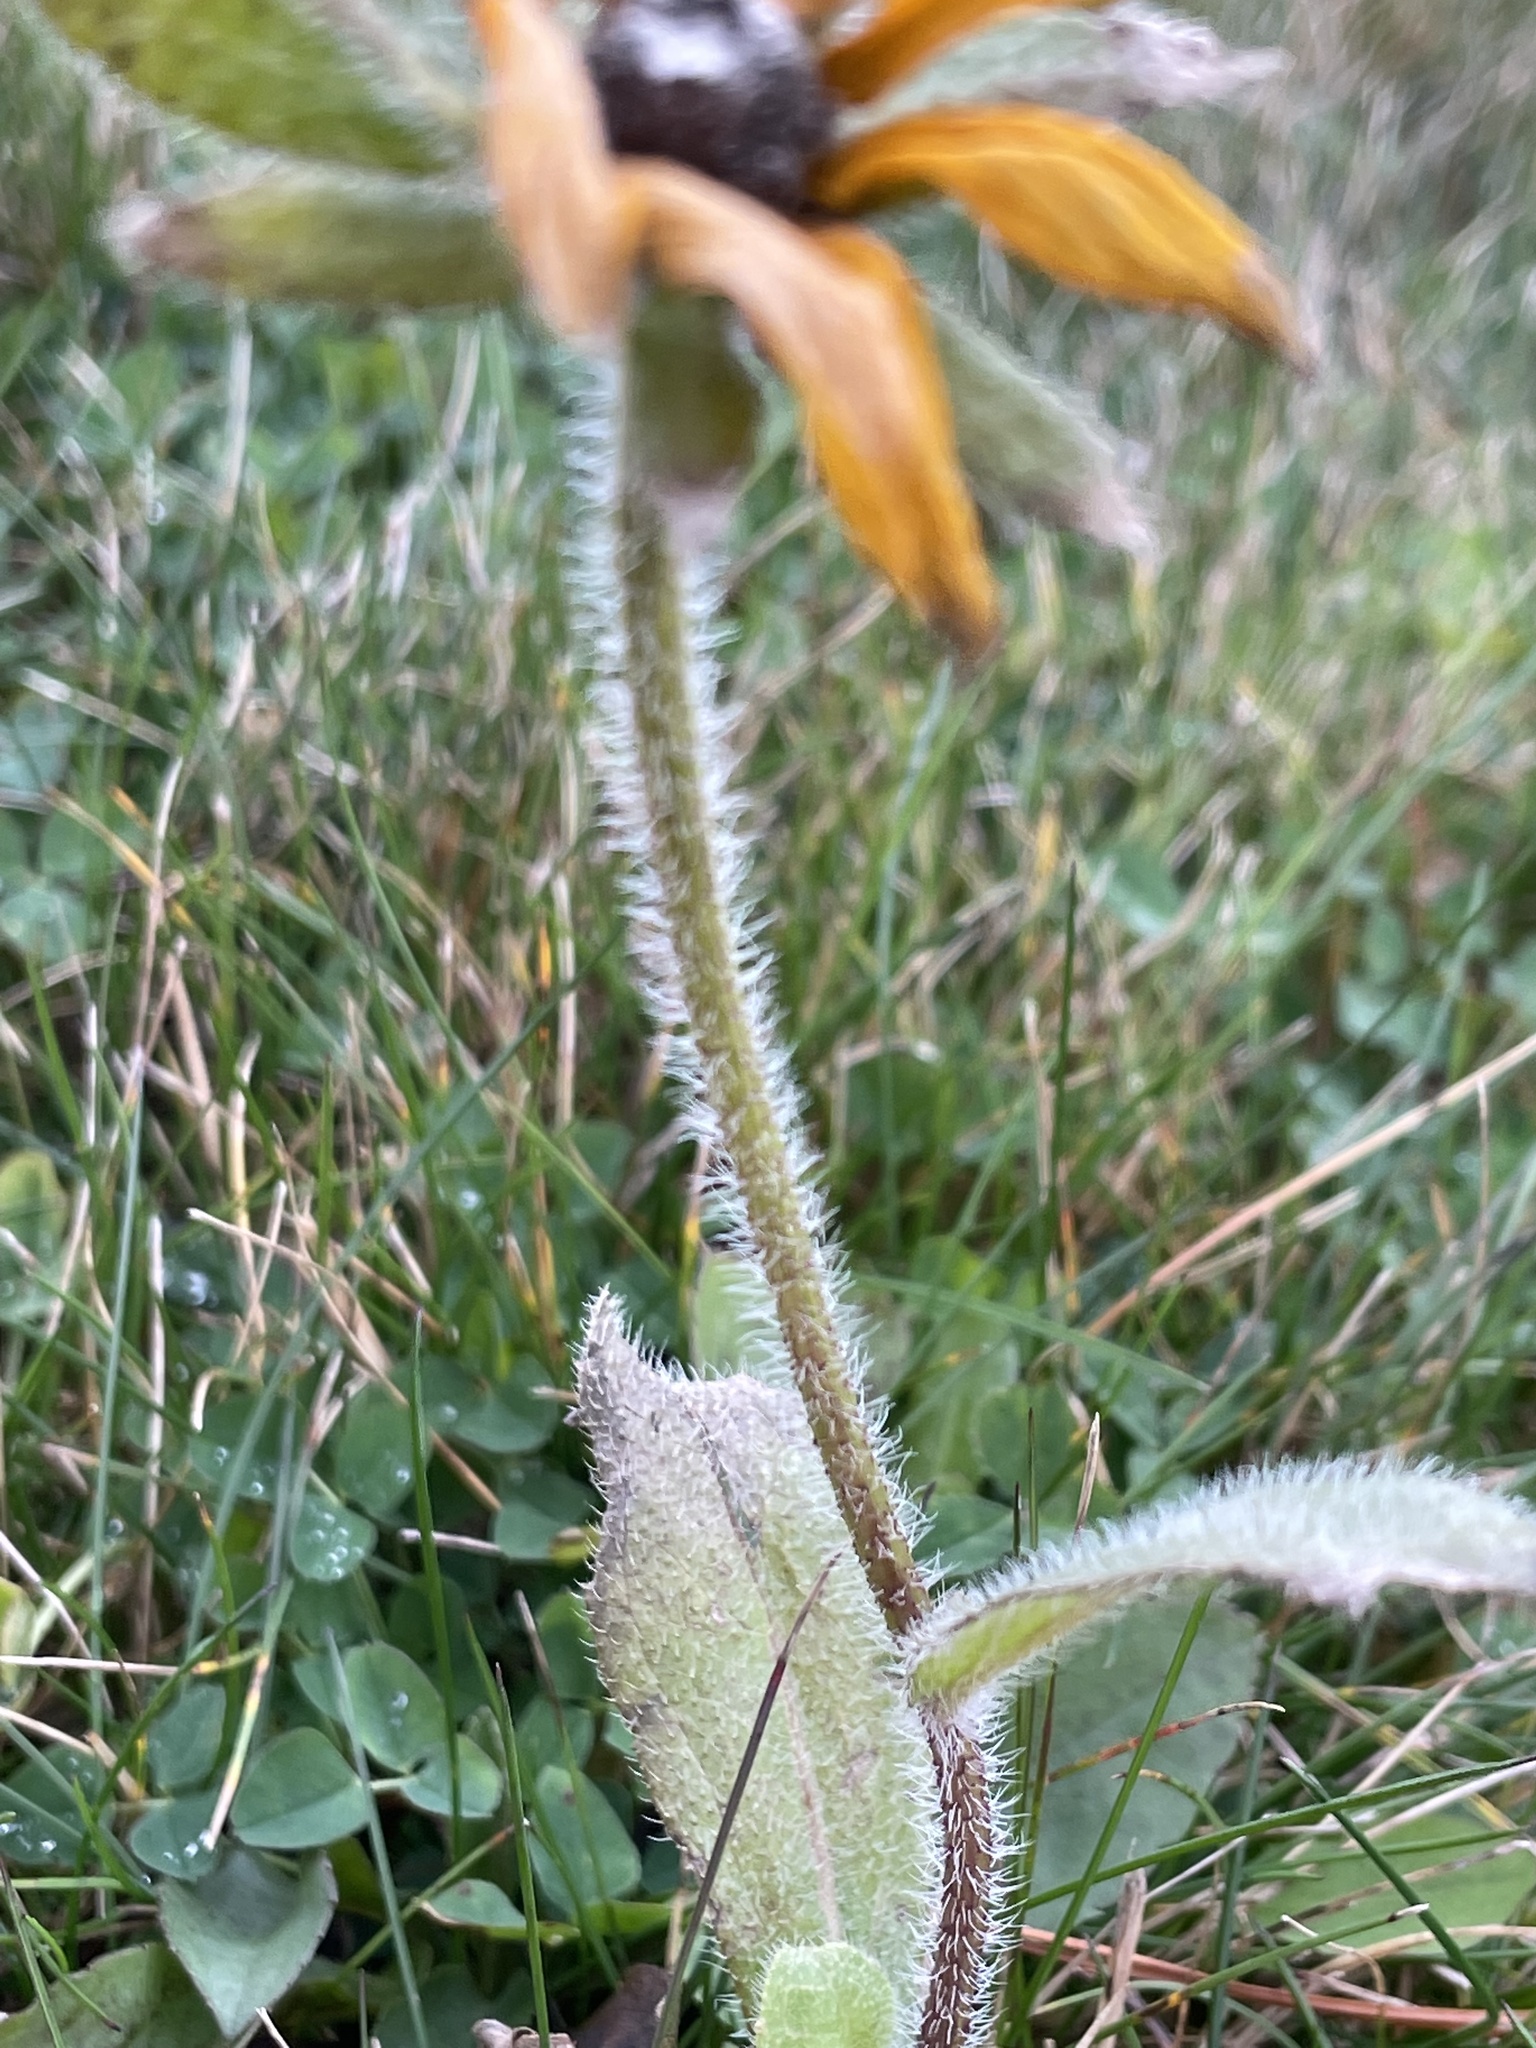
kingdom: Plantae
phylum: Tracheophyta
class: Magnoliopsida
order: Asterales
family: Asteraceae
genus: Rudbeckia
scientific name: Rudbeckia hirta
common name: Black-eyed-susan
